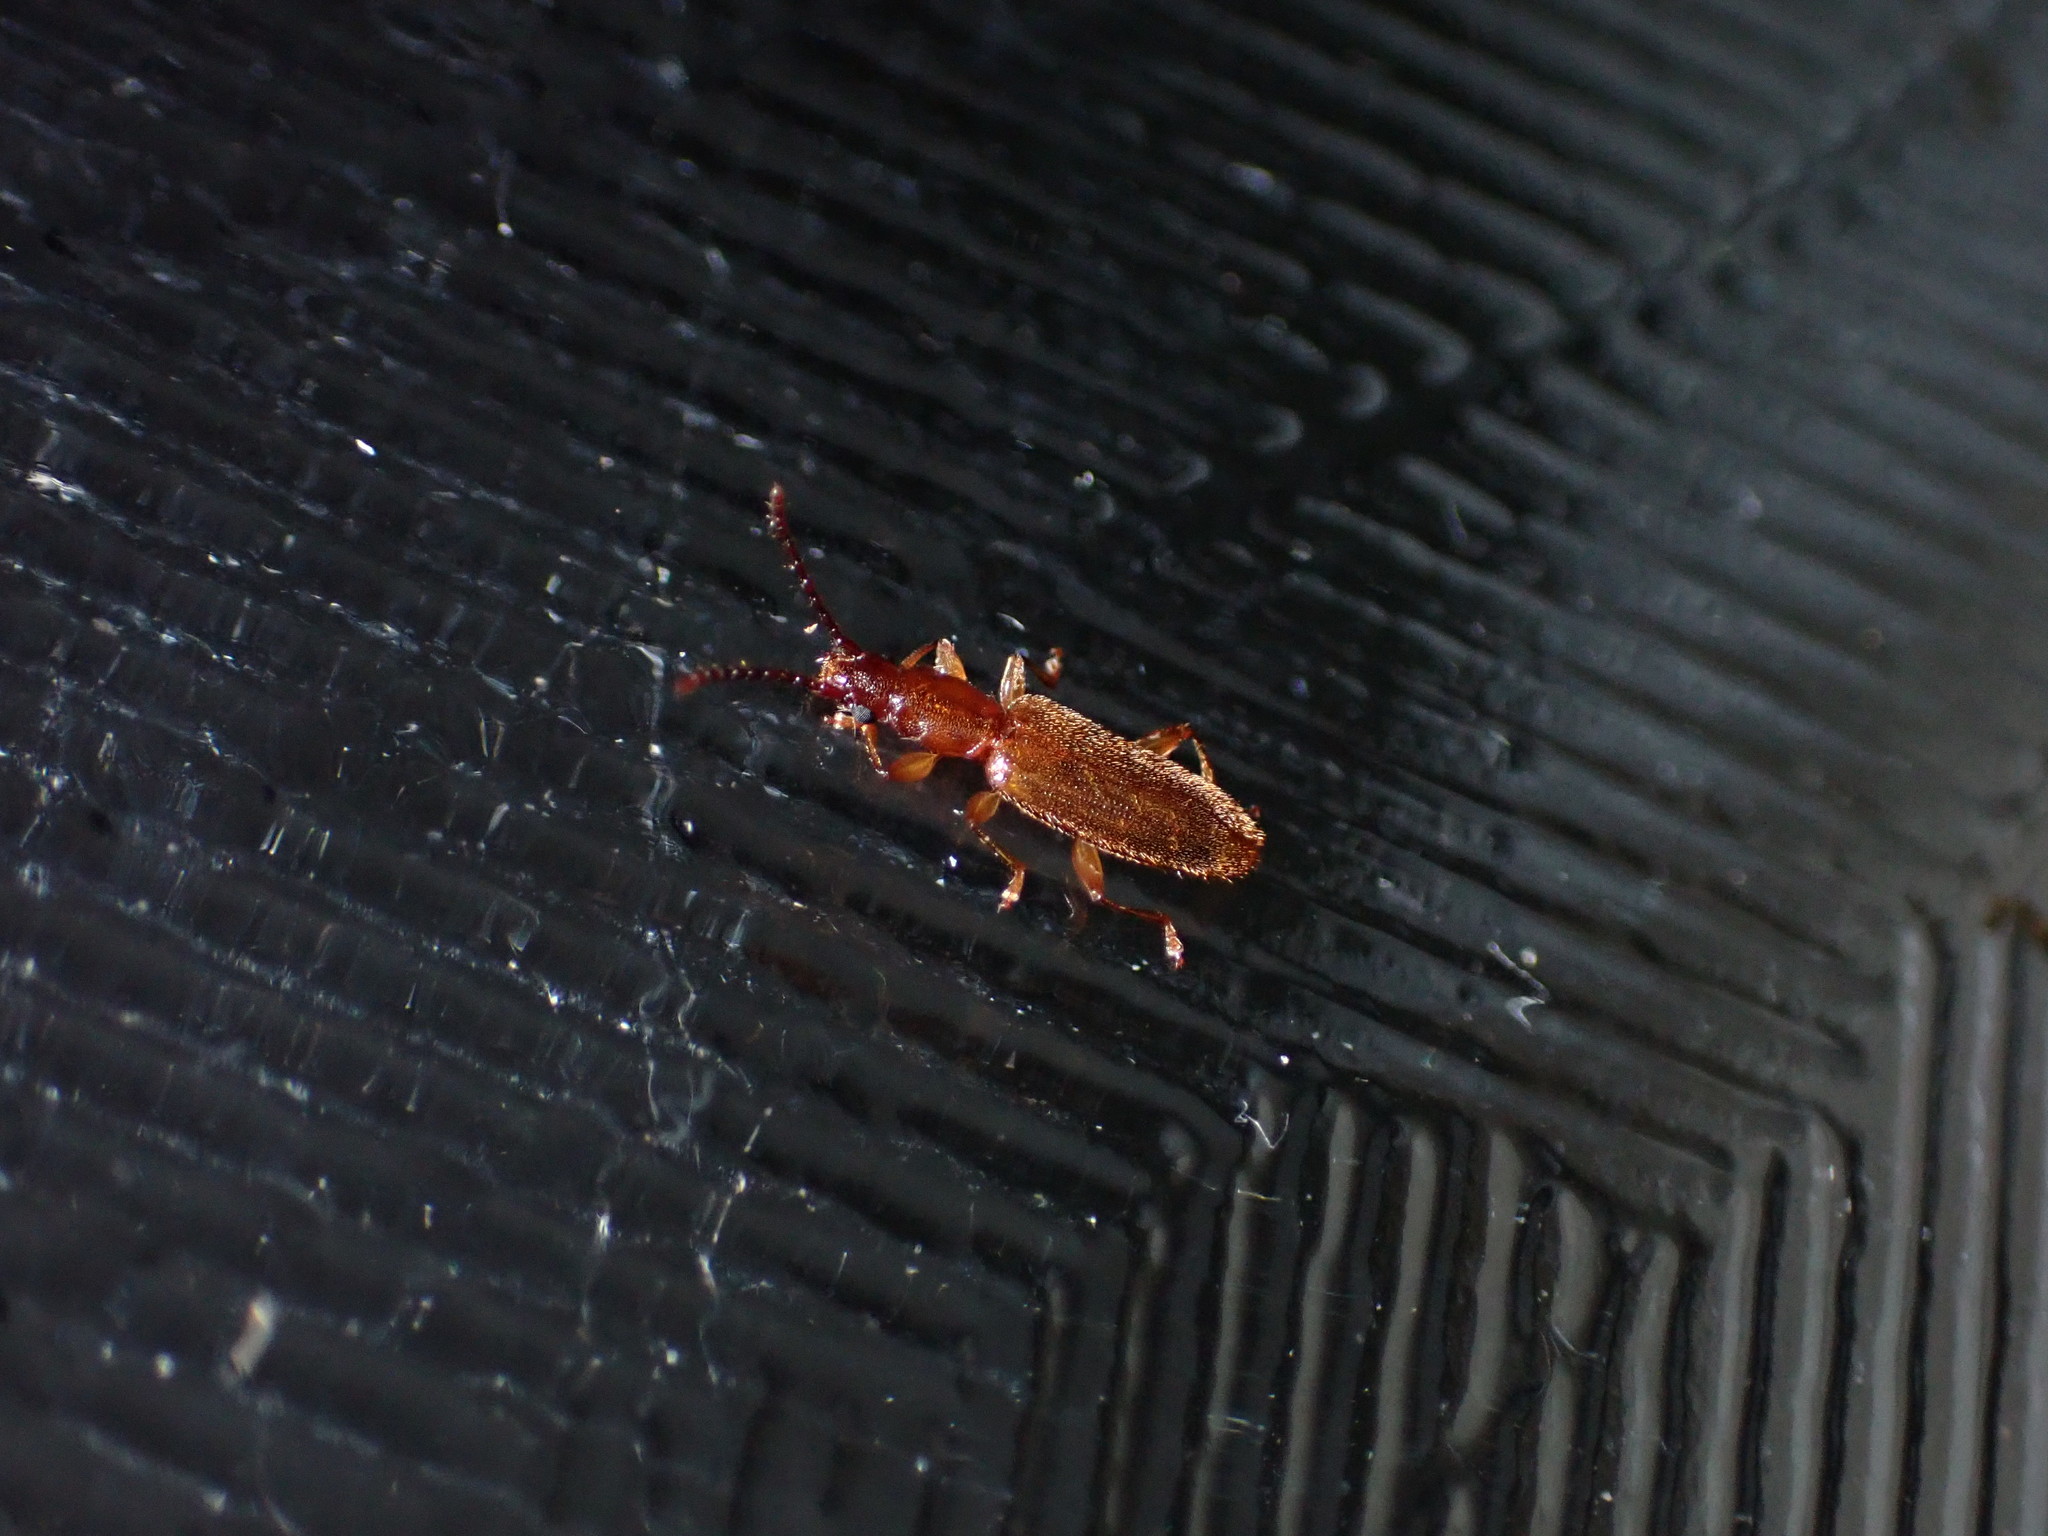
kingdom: Animalia
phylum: Arthropoda
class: Insecta
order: Coleoptera
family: Silvanidae
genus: Cryptamorpha
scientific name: Cryptamorpha brevicornis
